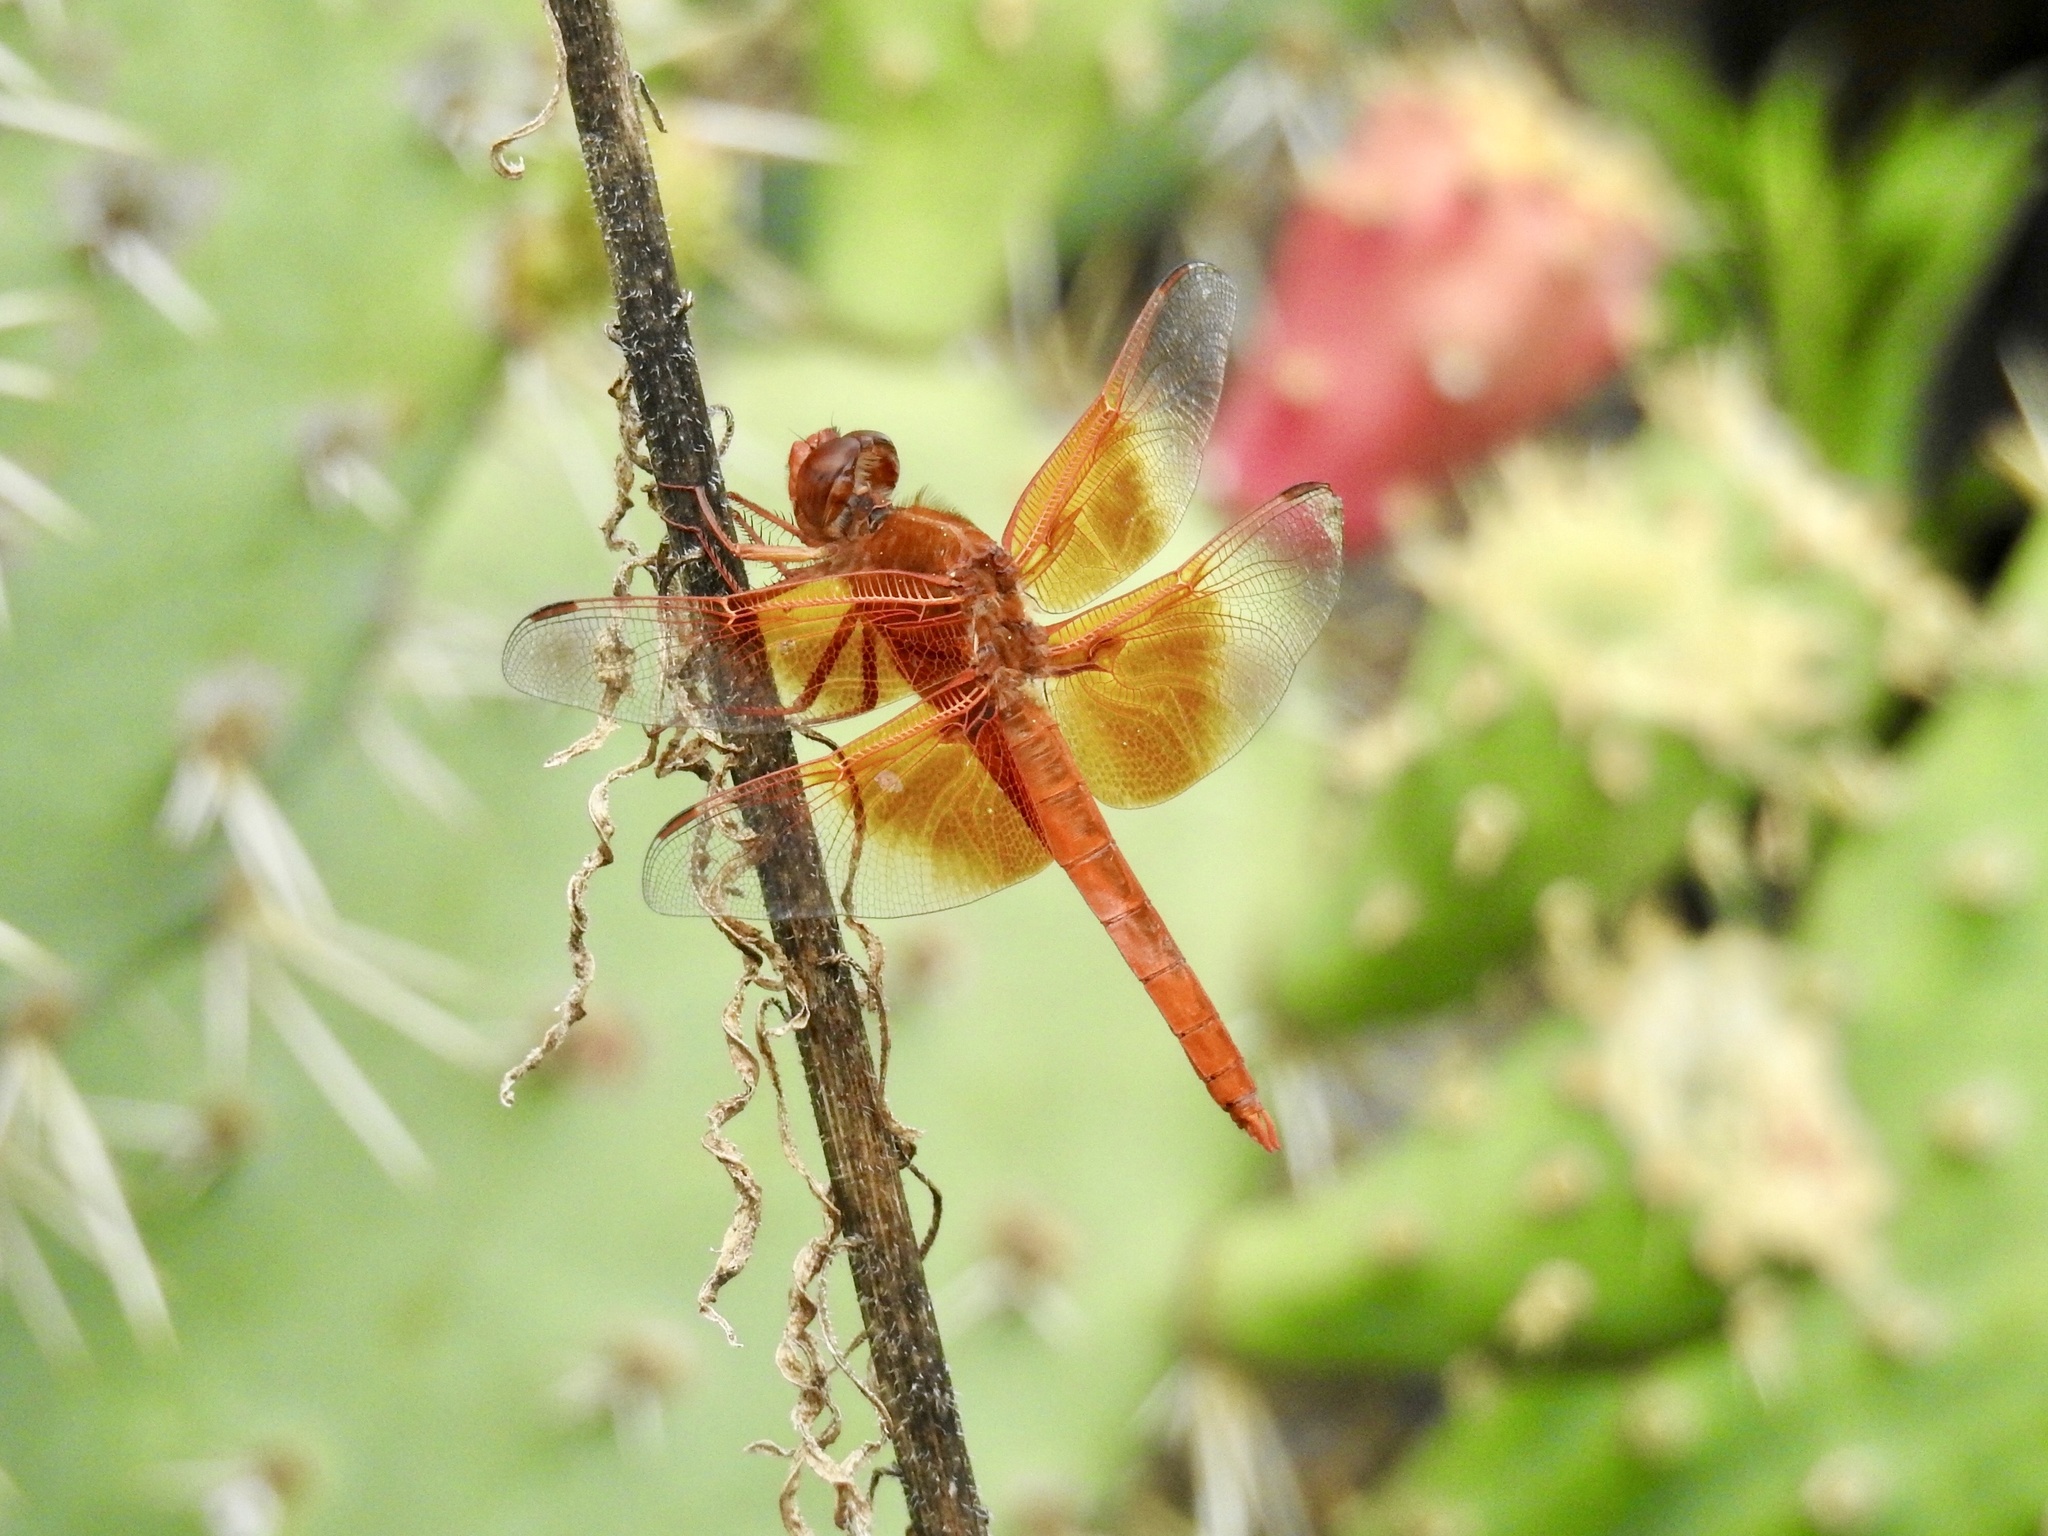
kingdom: Animalia
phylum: Arthropoda
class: Insecta
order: Odonata
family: Libellulidae
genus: Libellula
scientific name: Libellula saturata
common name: Flame skimmer
